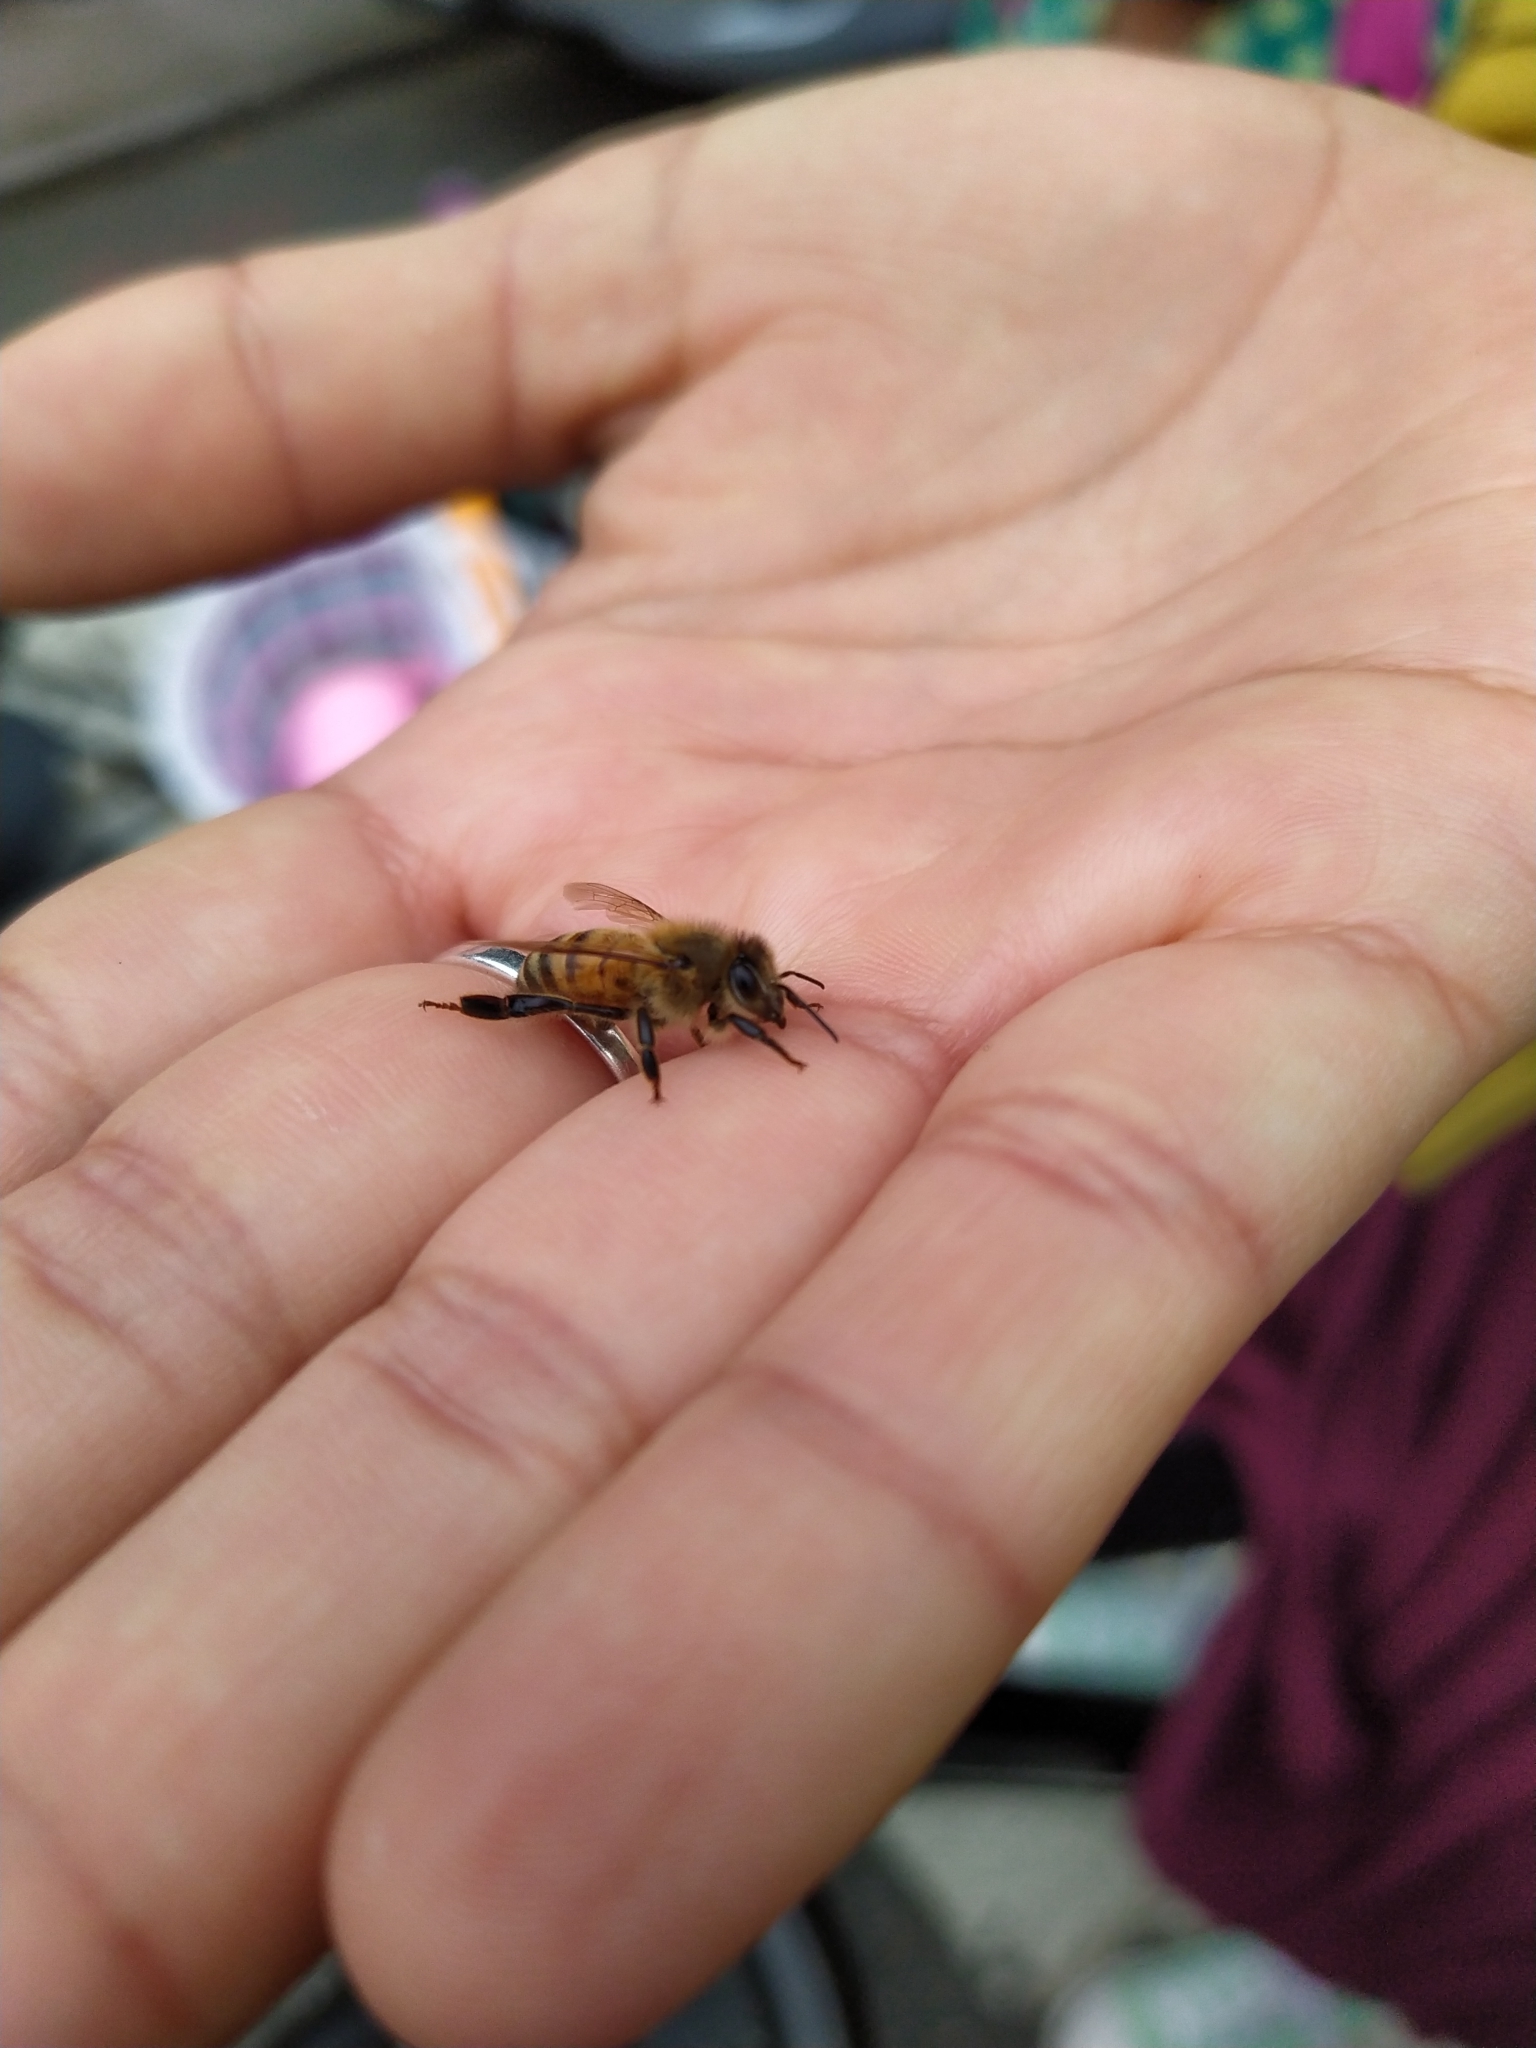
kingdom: Animalia
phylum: Arthropoda
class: Insecta
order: Hymenoptera
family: Apidae
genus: Apis
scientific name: Apis mellifera
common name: Honey bee
